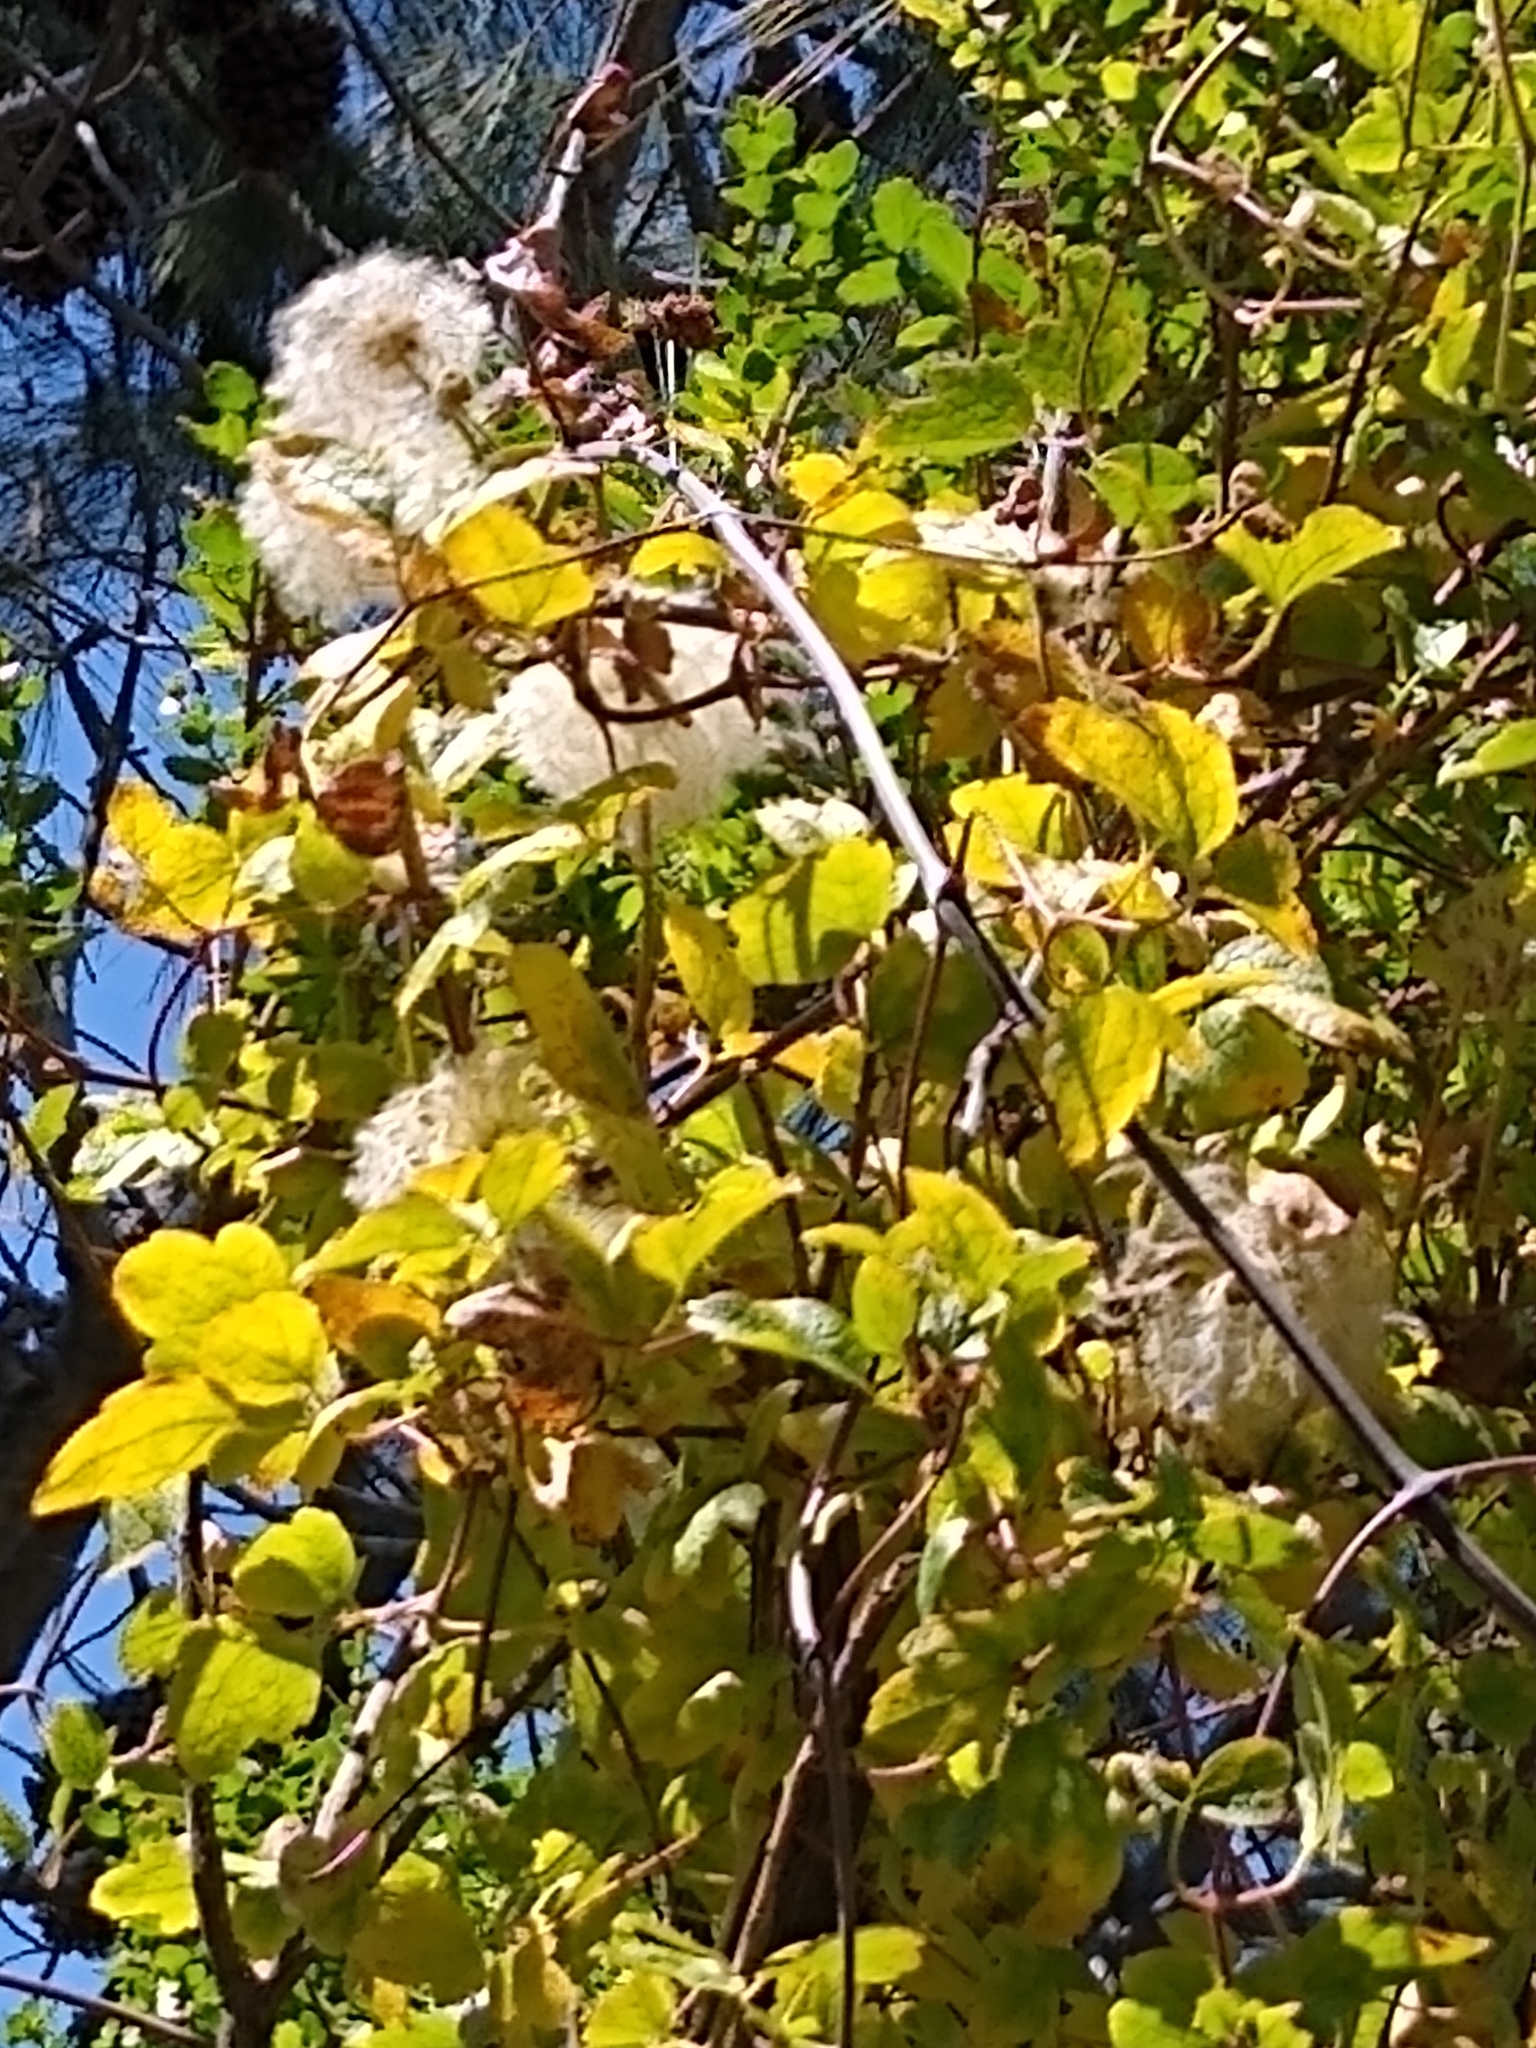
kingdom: Plantae
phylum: Tracheophyta
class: Magnoliopsida
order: Ranunculales
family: Ranunculaceae
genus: Clematis
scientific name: Clematis lasiantha
